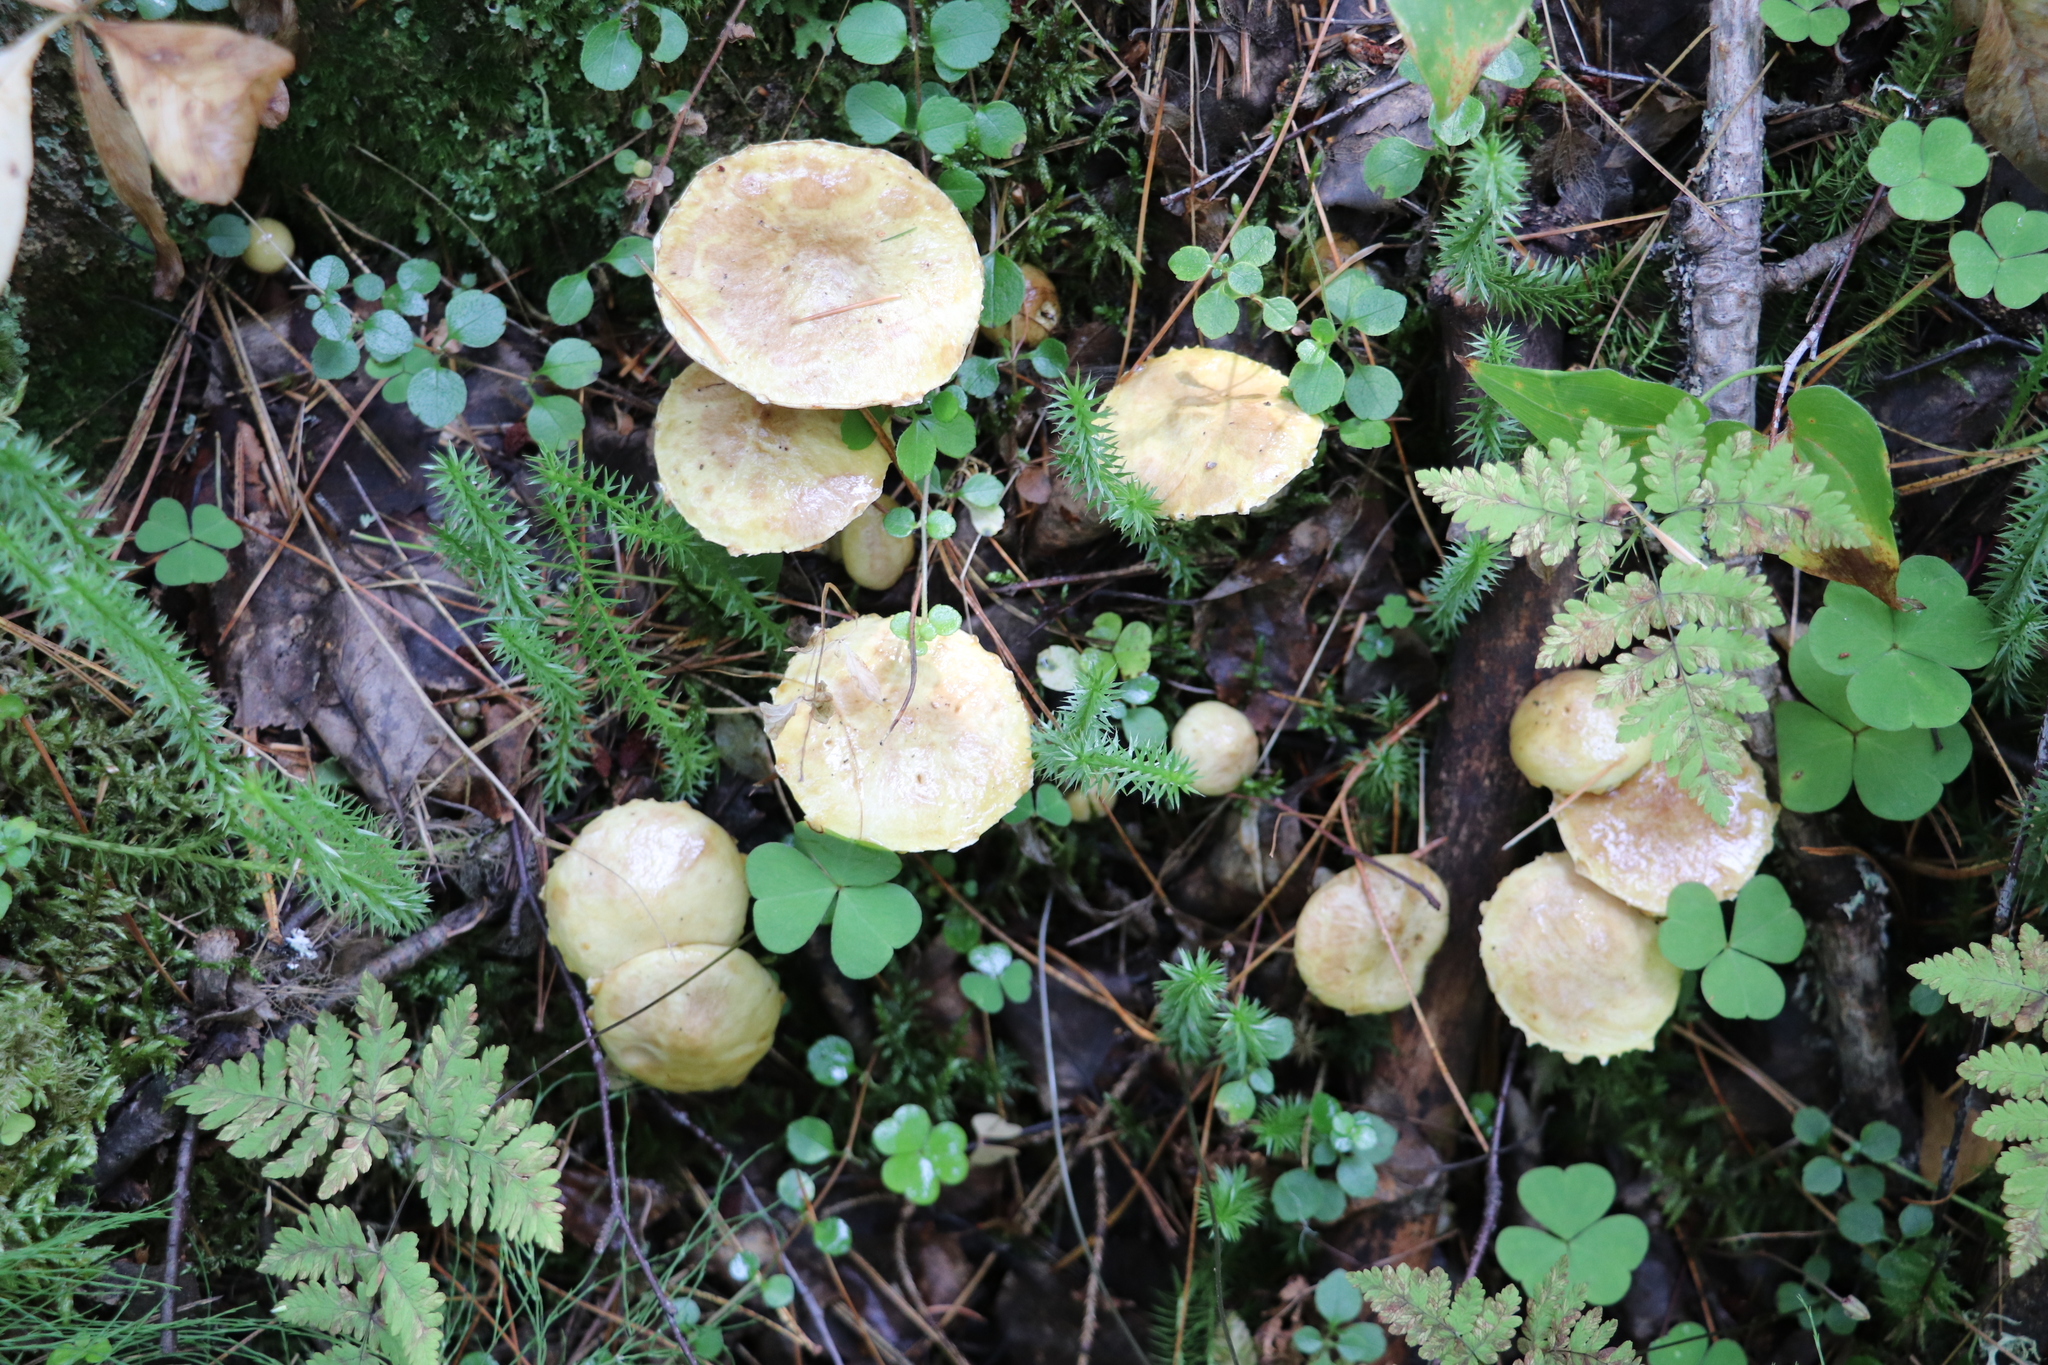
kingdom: Fungi
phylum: Basidiomycota
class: Agaricomycetes
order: Boletales
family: Suillaceae
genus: Suillus
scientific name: Suillus acidus
